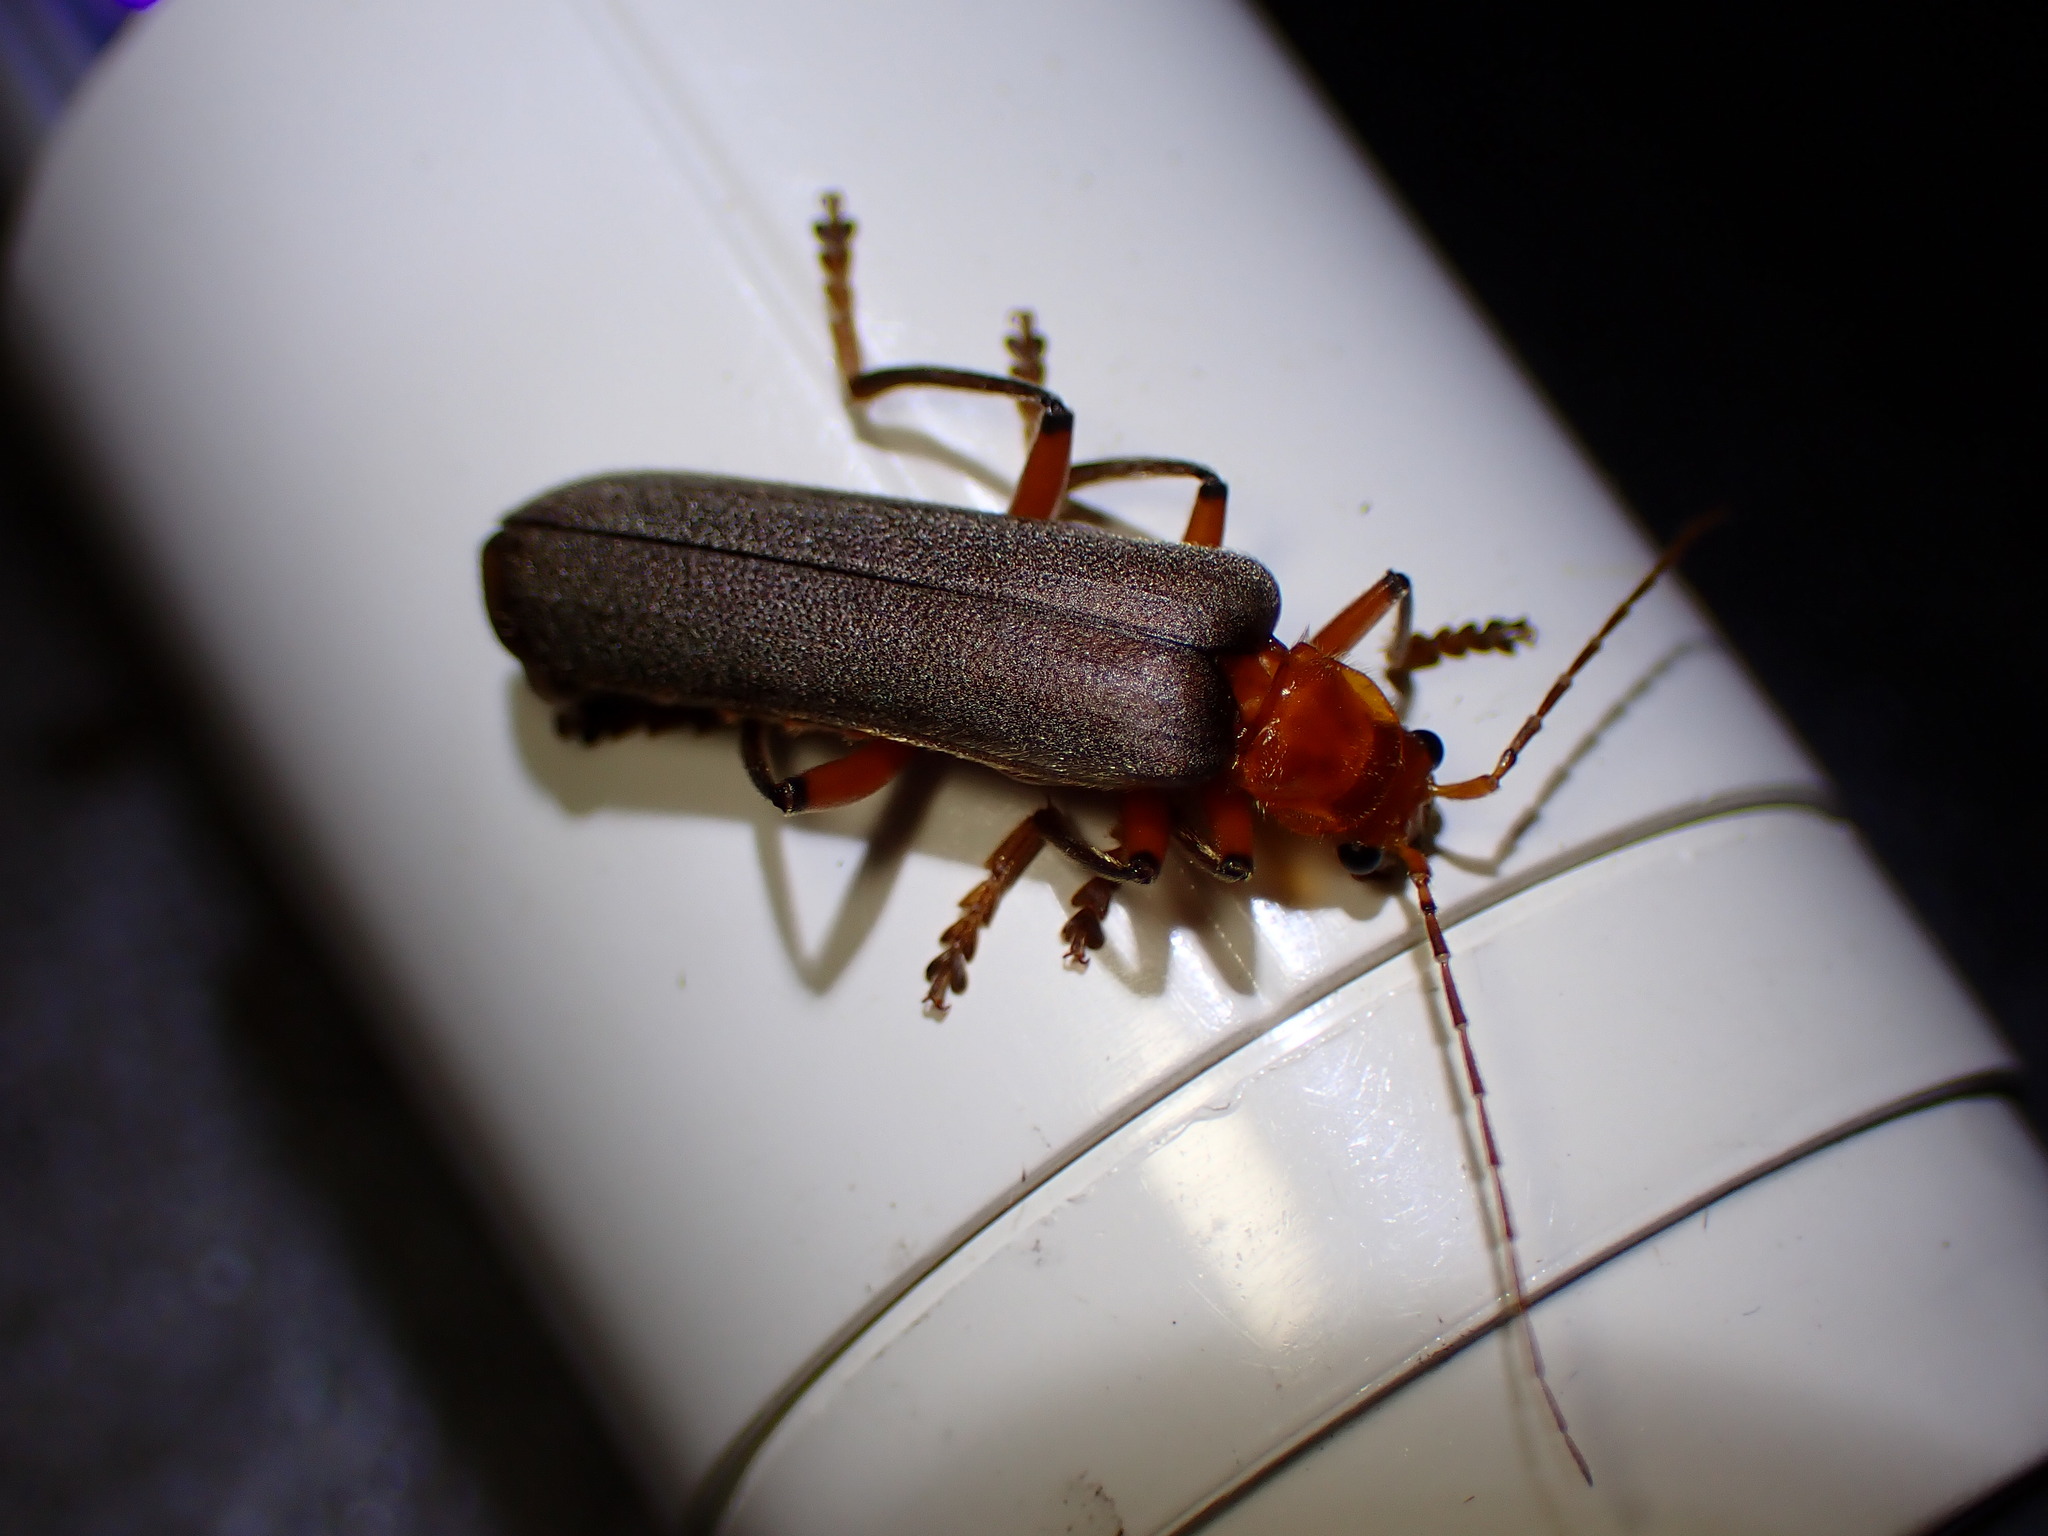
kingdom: Animalia
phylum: Arthropoda
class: Insecta
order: Coleoptera
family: Cantharidae
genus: Pacificanthia
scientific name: Pacificanthia consors
